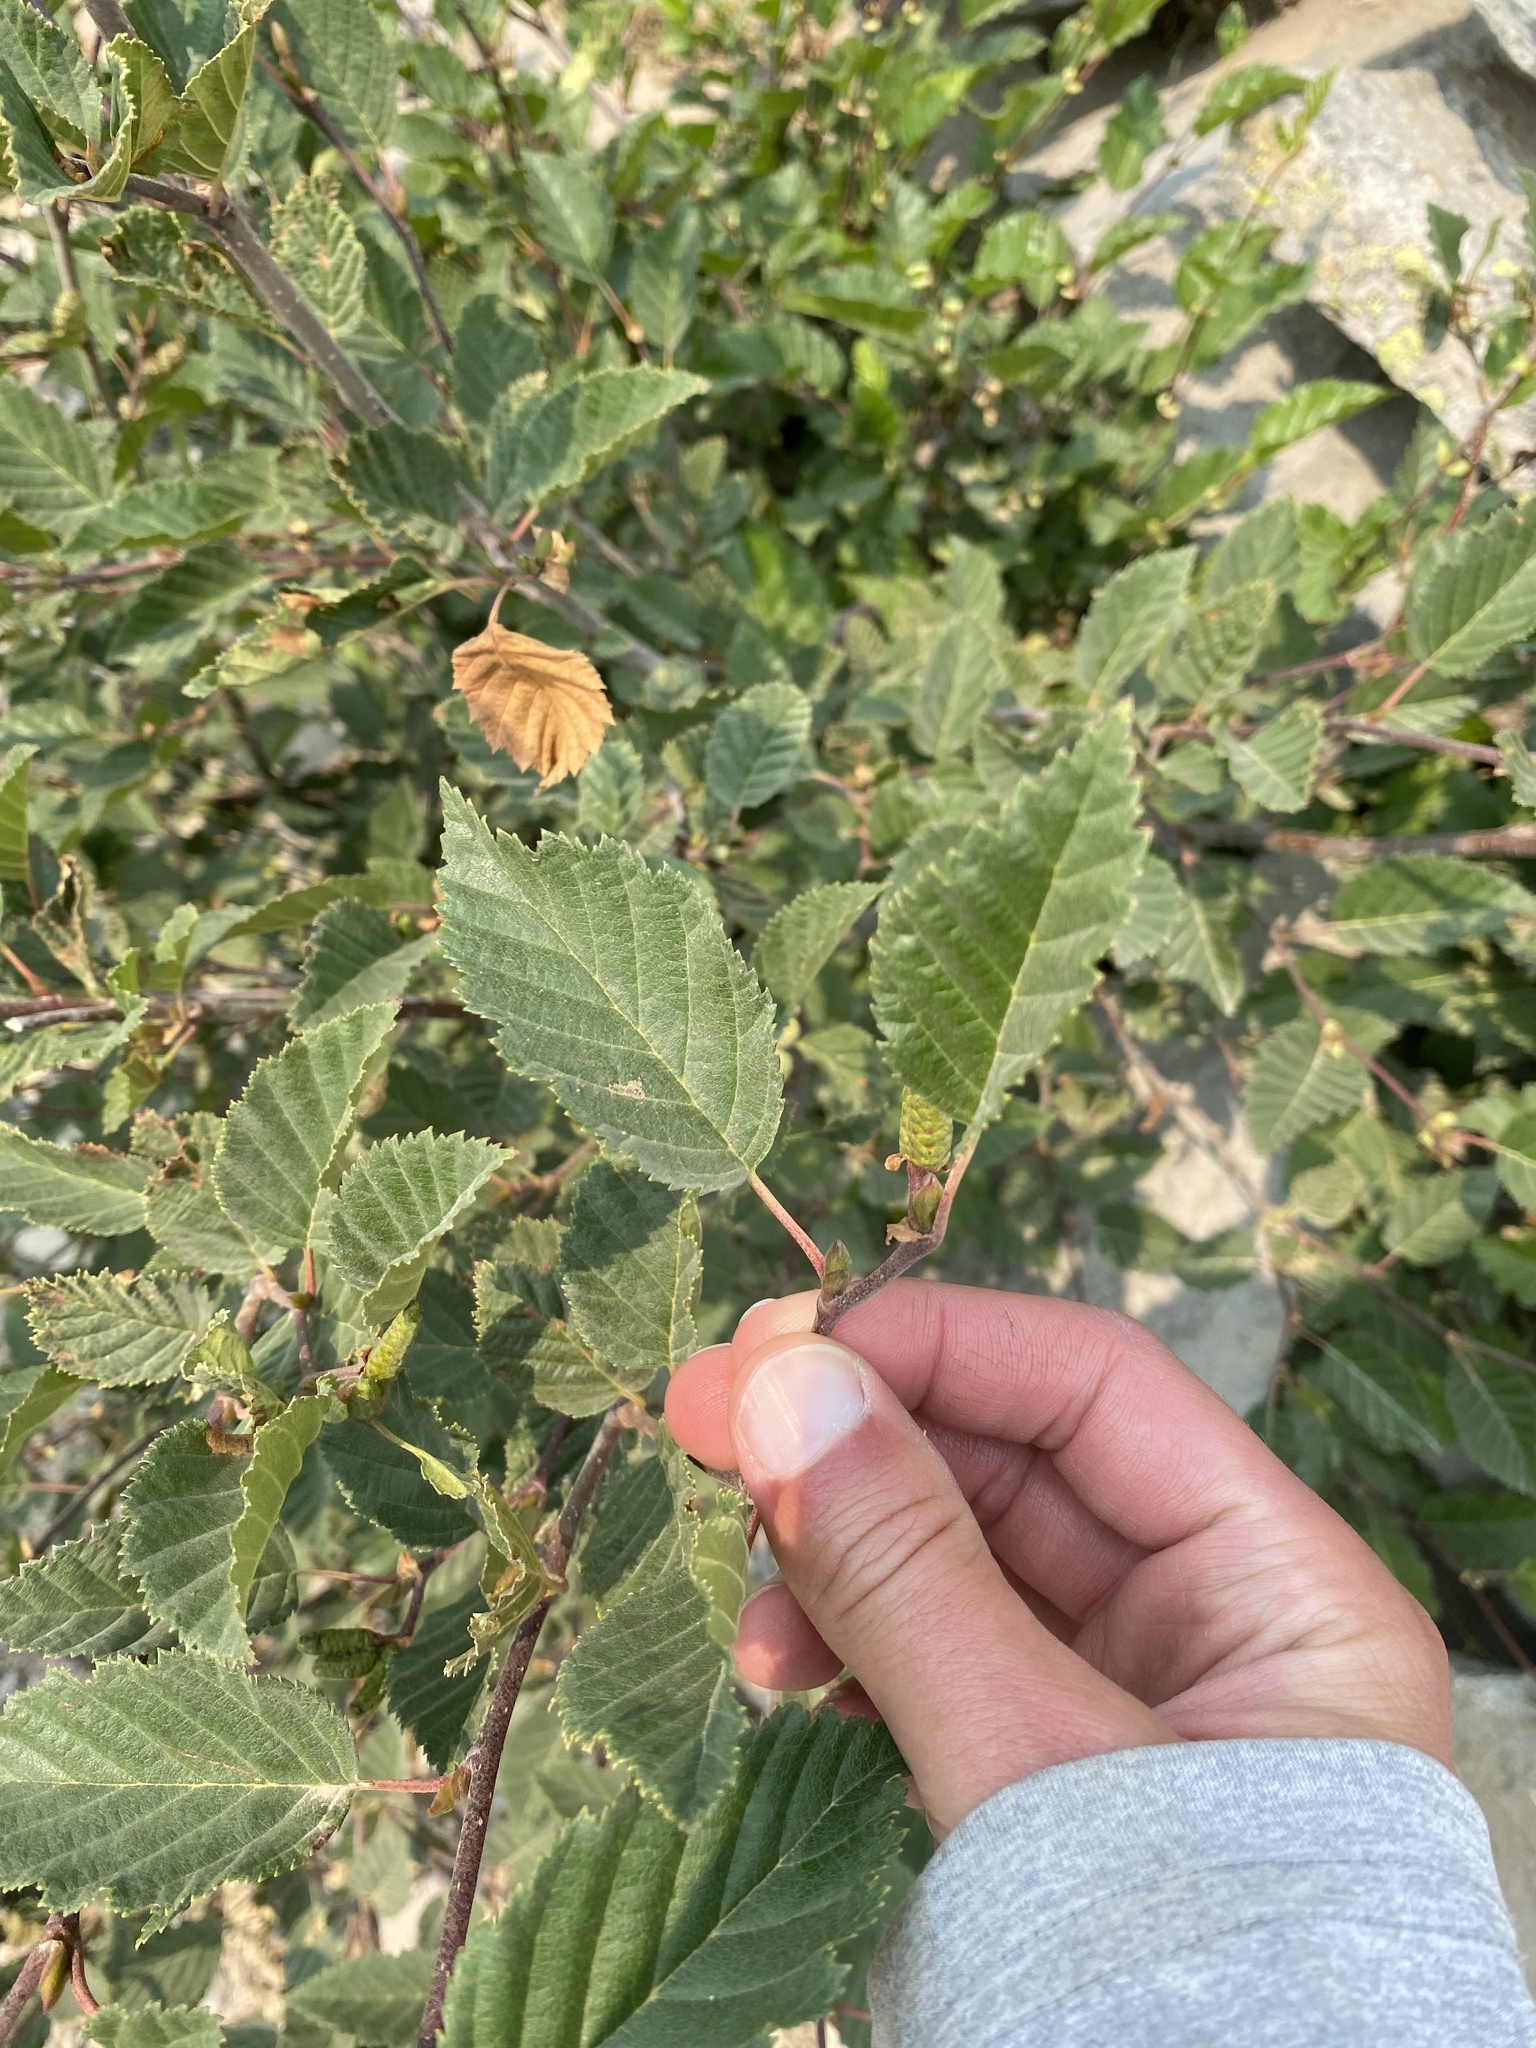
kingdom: Plantae
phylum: Tracheophyta
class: Magnoliopsida
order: Fagales
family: Betulaceae
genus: Alnus
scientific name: Alnus alnobetula
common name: Green alder
